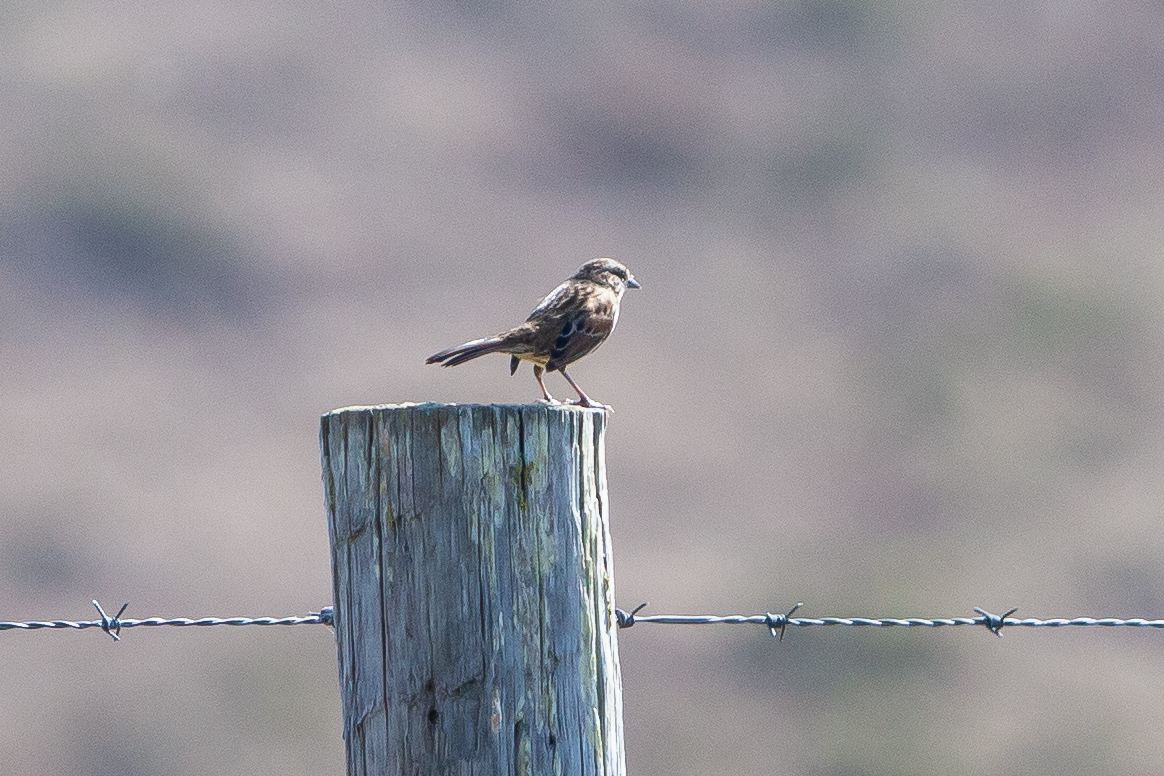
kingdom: Animalia
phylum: Chordata
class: Aves
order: Passeriformes
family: Passerellidae
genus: Melospiza
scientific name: Melospiza melodia
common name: Song sparrow
